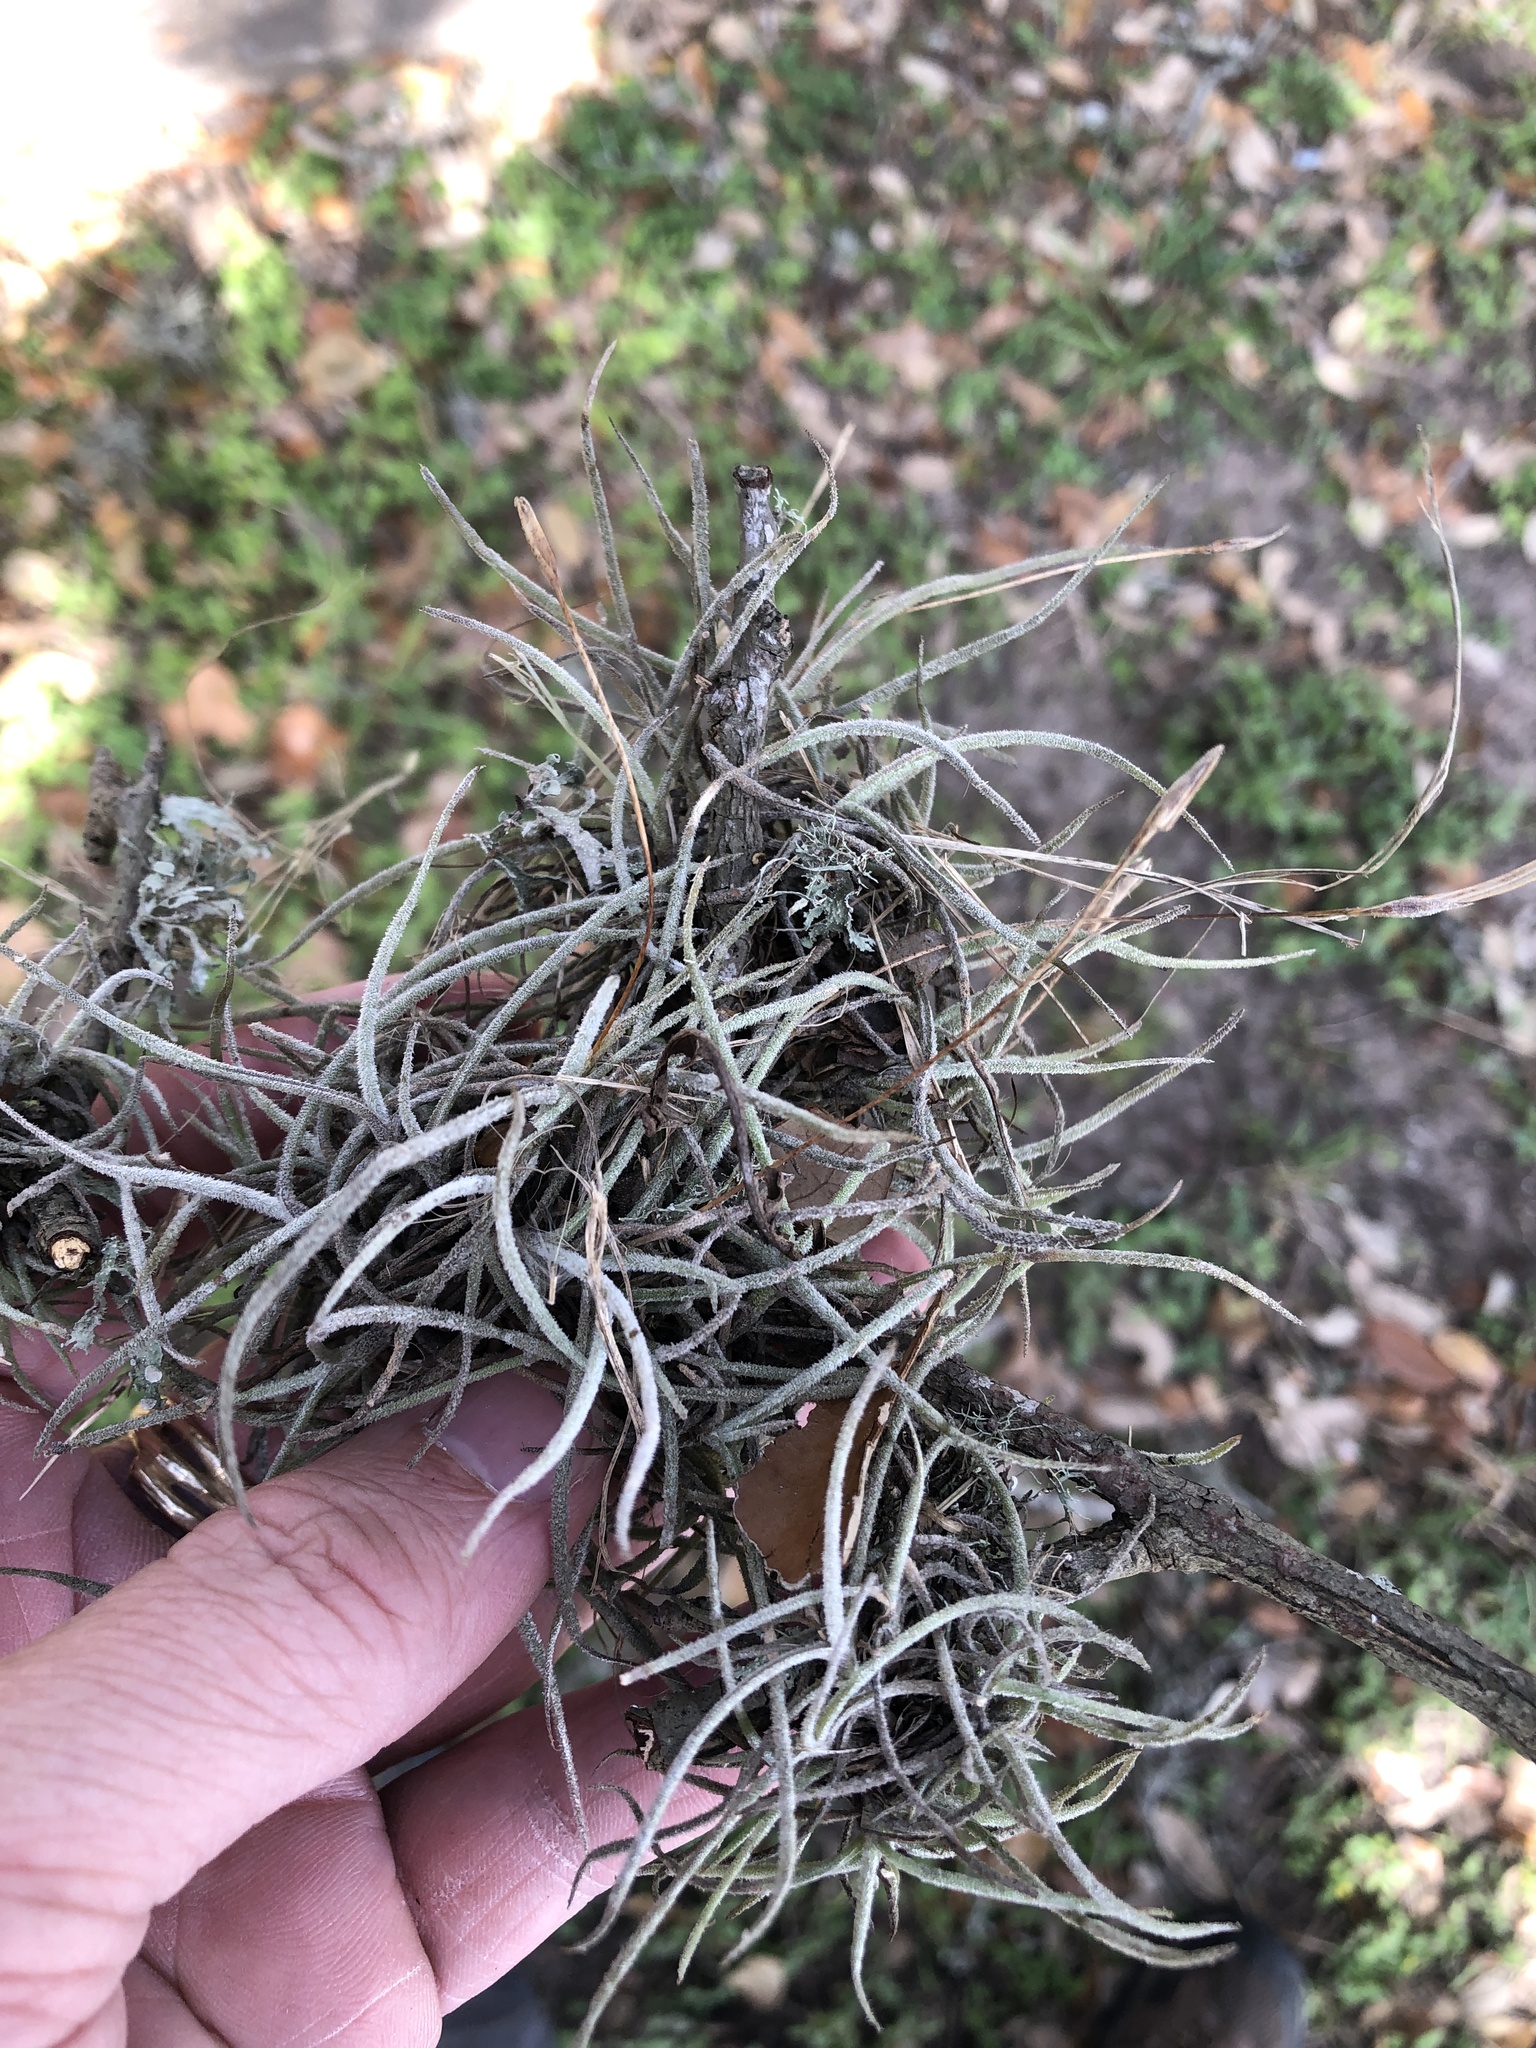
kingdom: Plantae
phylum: Tracheophyta
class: Liliopsida
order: Poales
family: Bromeliaceae
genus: Tillandsia
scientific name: Tillandsia recurvata
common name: Small ballmoss
